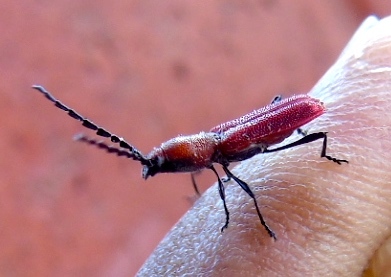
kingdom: Animalia
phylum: Arthropoda
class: Insecta
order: Coleoptera
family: Cerambycidae
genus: Assycuera
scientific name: Assycuera rubella
